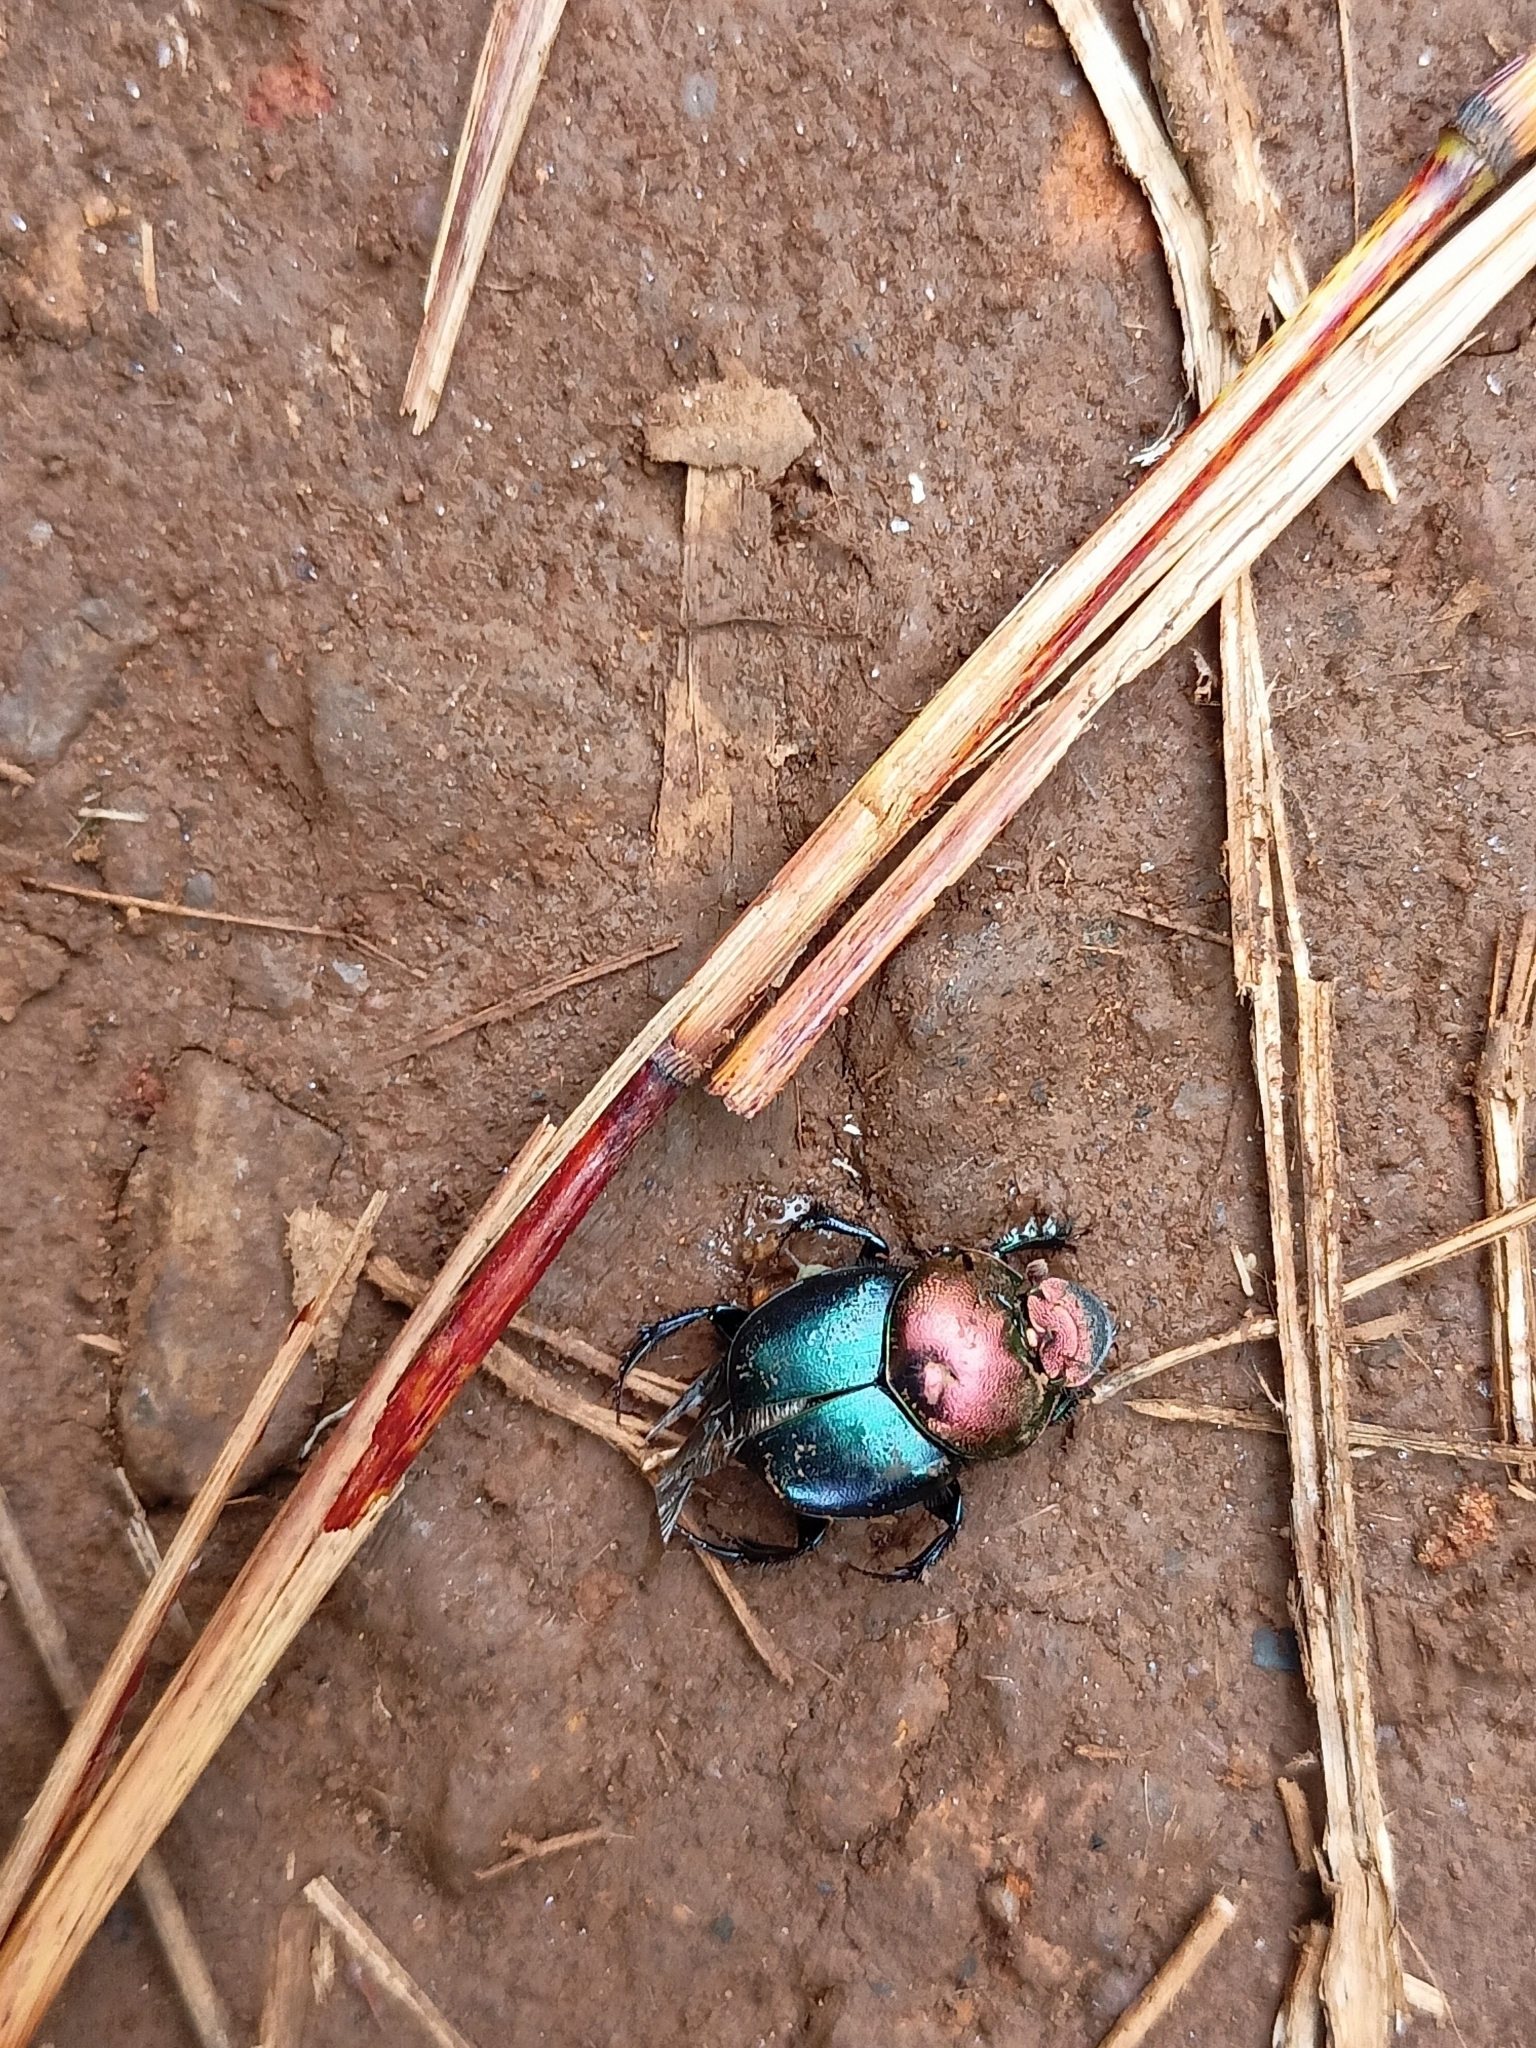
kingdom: Animalia
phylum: Arthropoda
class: Insecta
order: Coleoptera
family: Scarabaeidae
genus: Proagoderus
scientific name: Proagoderus
